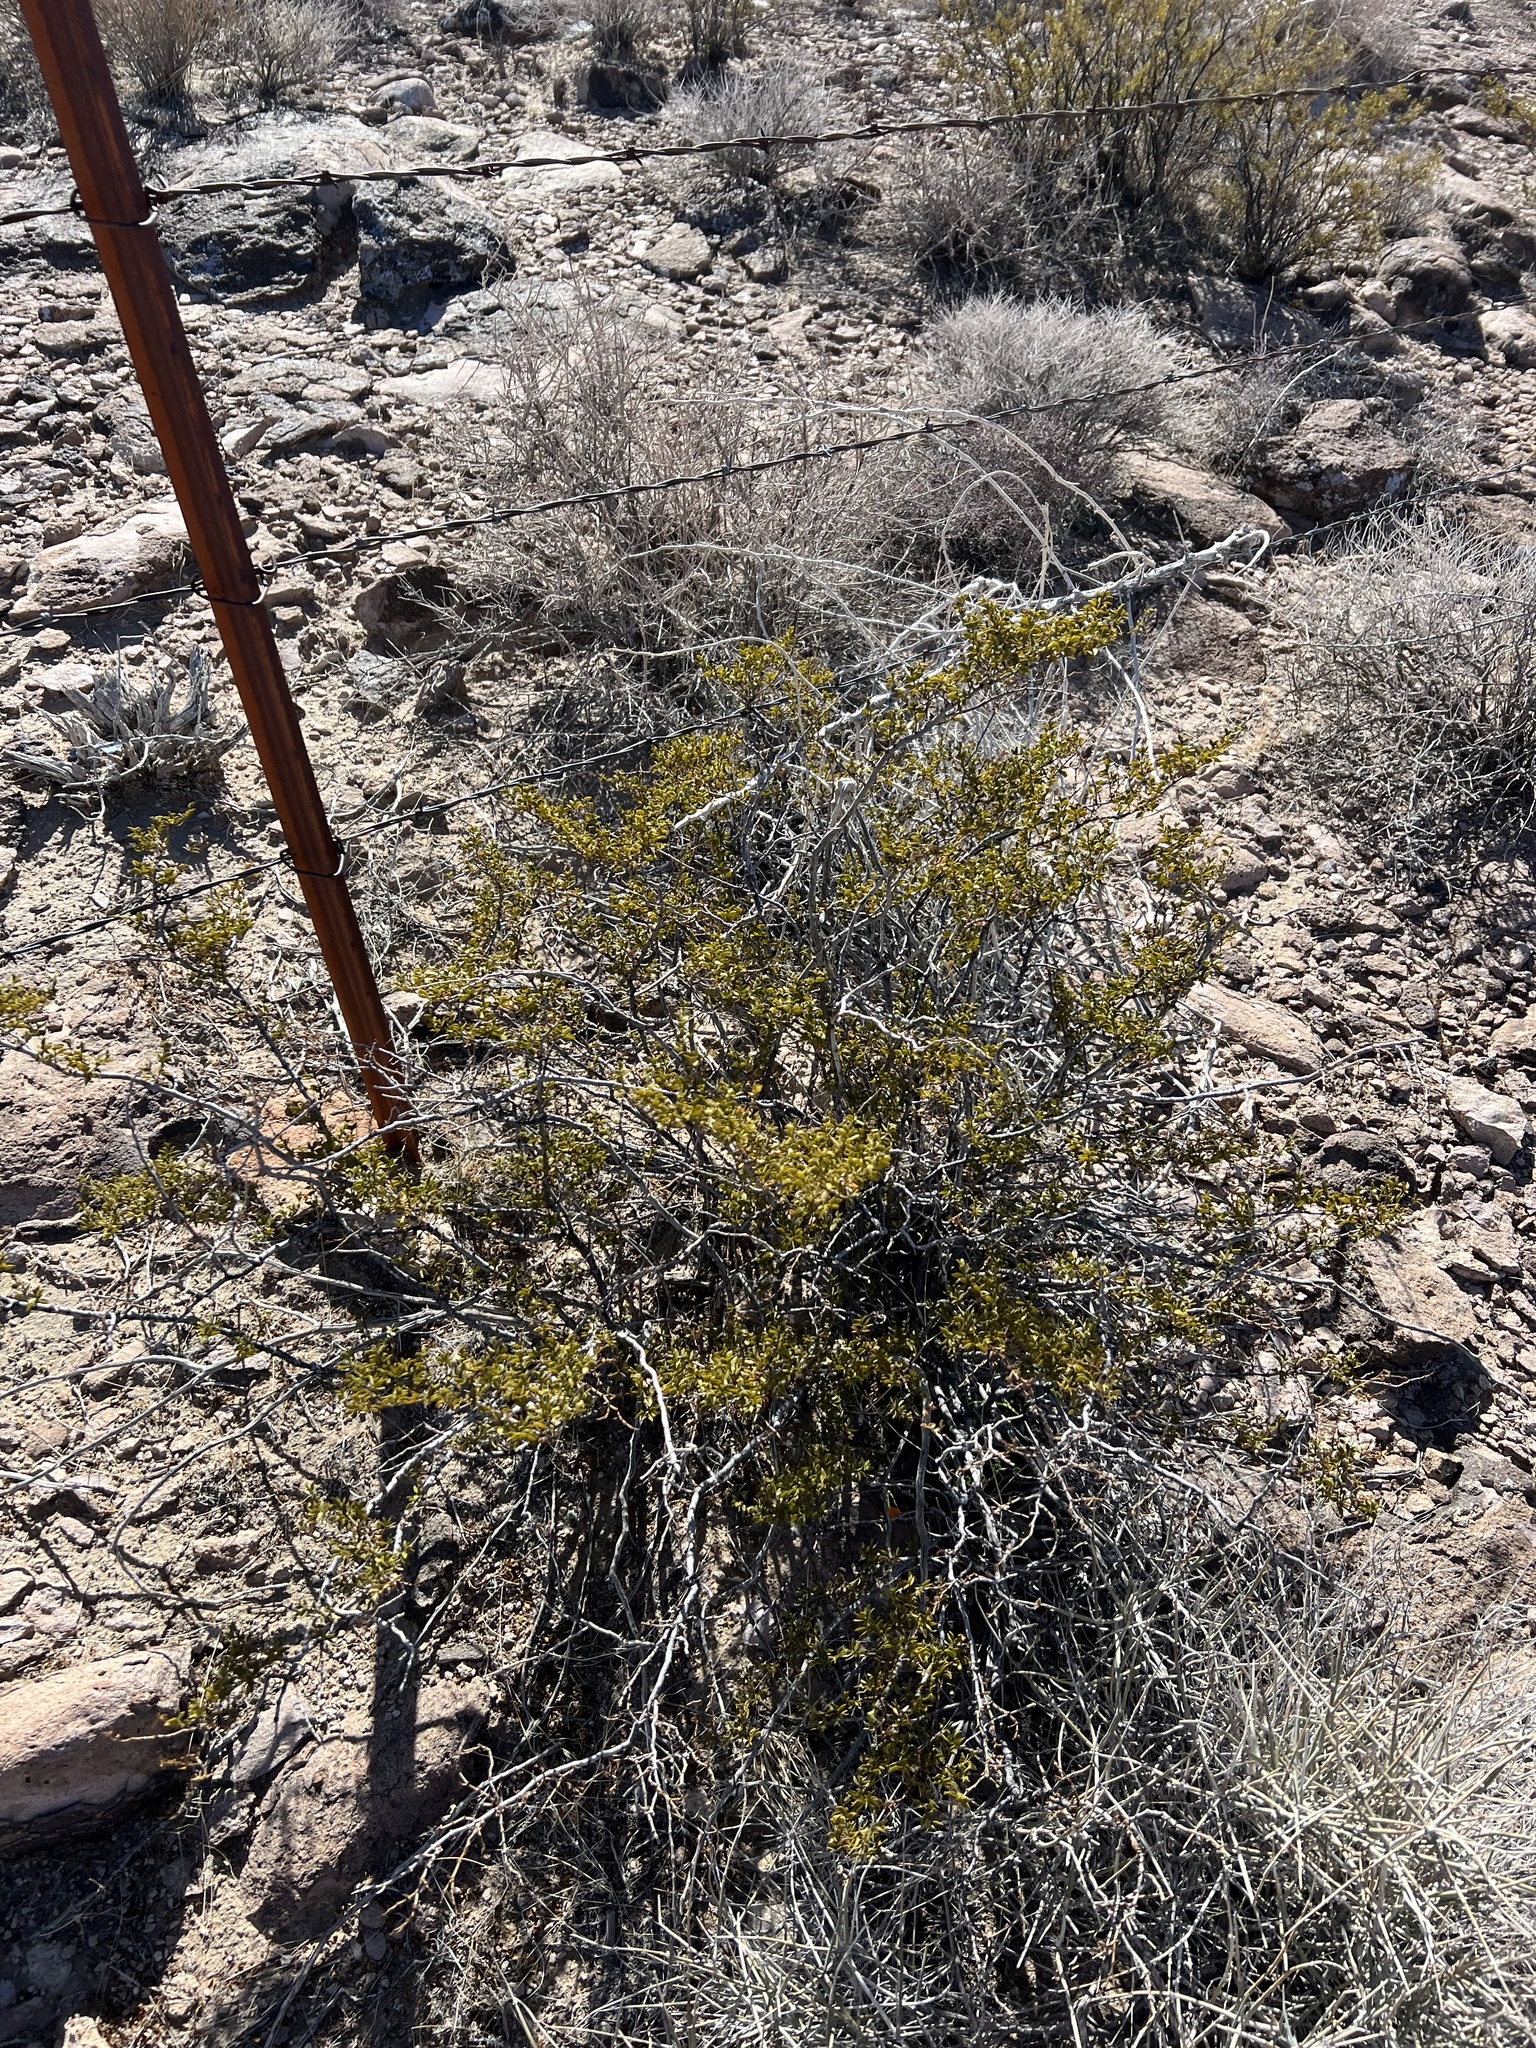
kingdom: Plantae
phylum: Tracheophyta
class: Magnoliopsida
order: Zygophyllales
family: Zygophyllaceae
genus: Larrea
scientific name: Larrea tridentata
